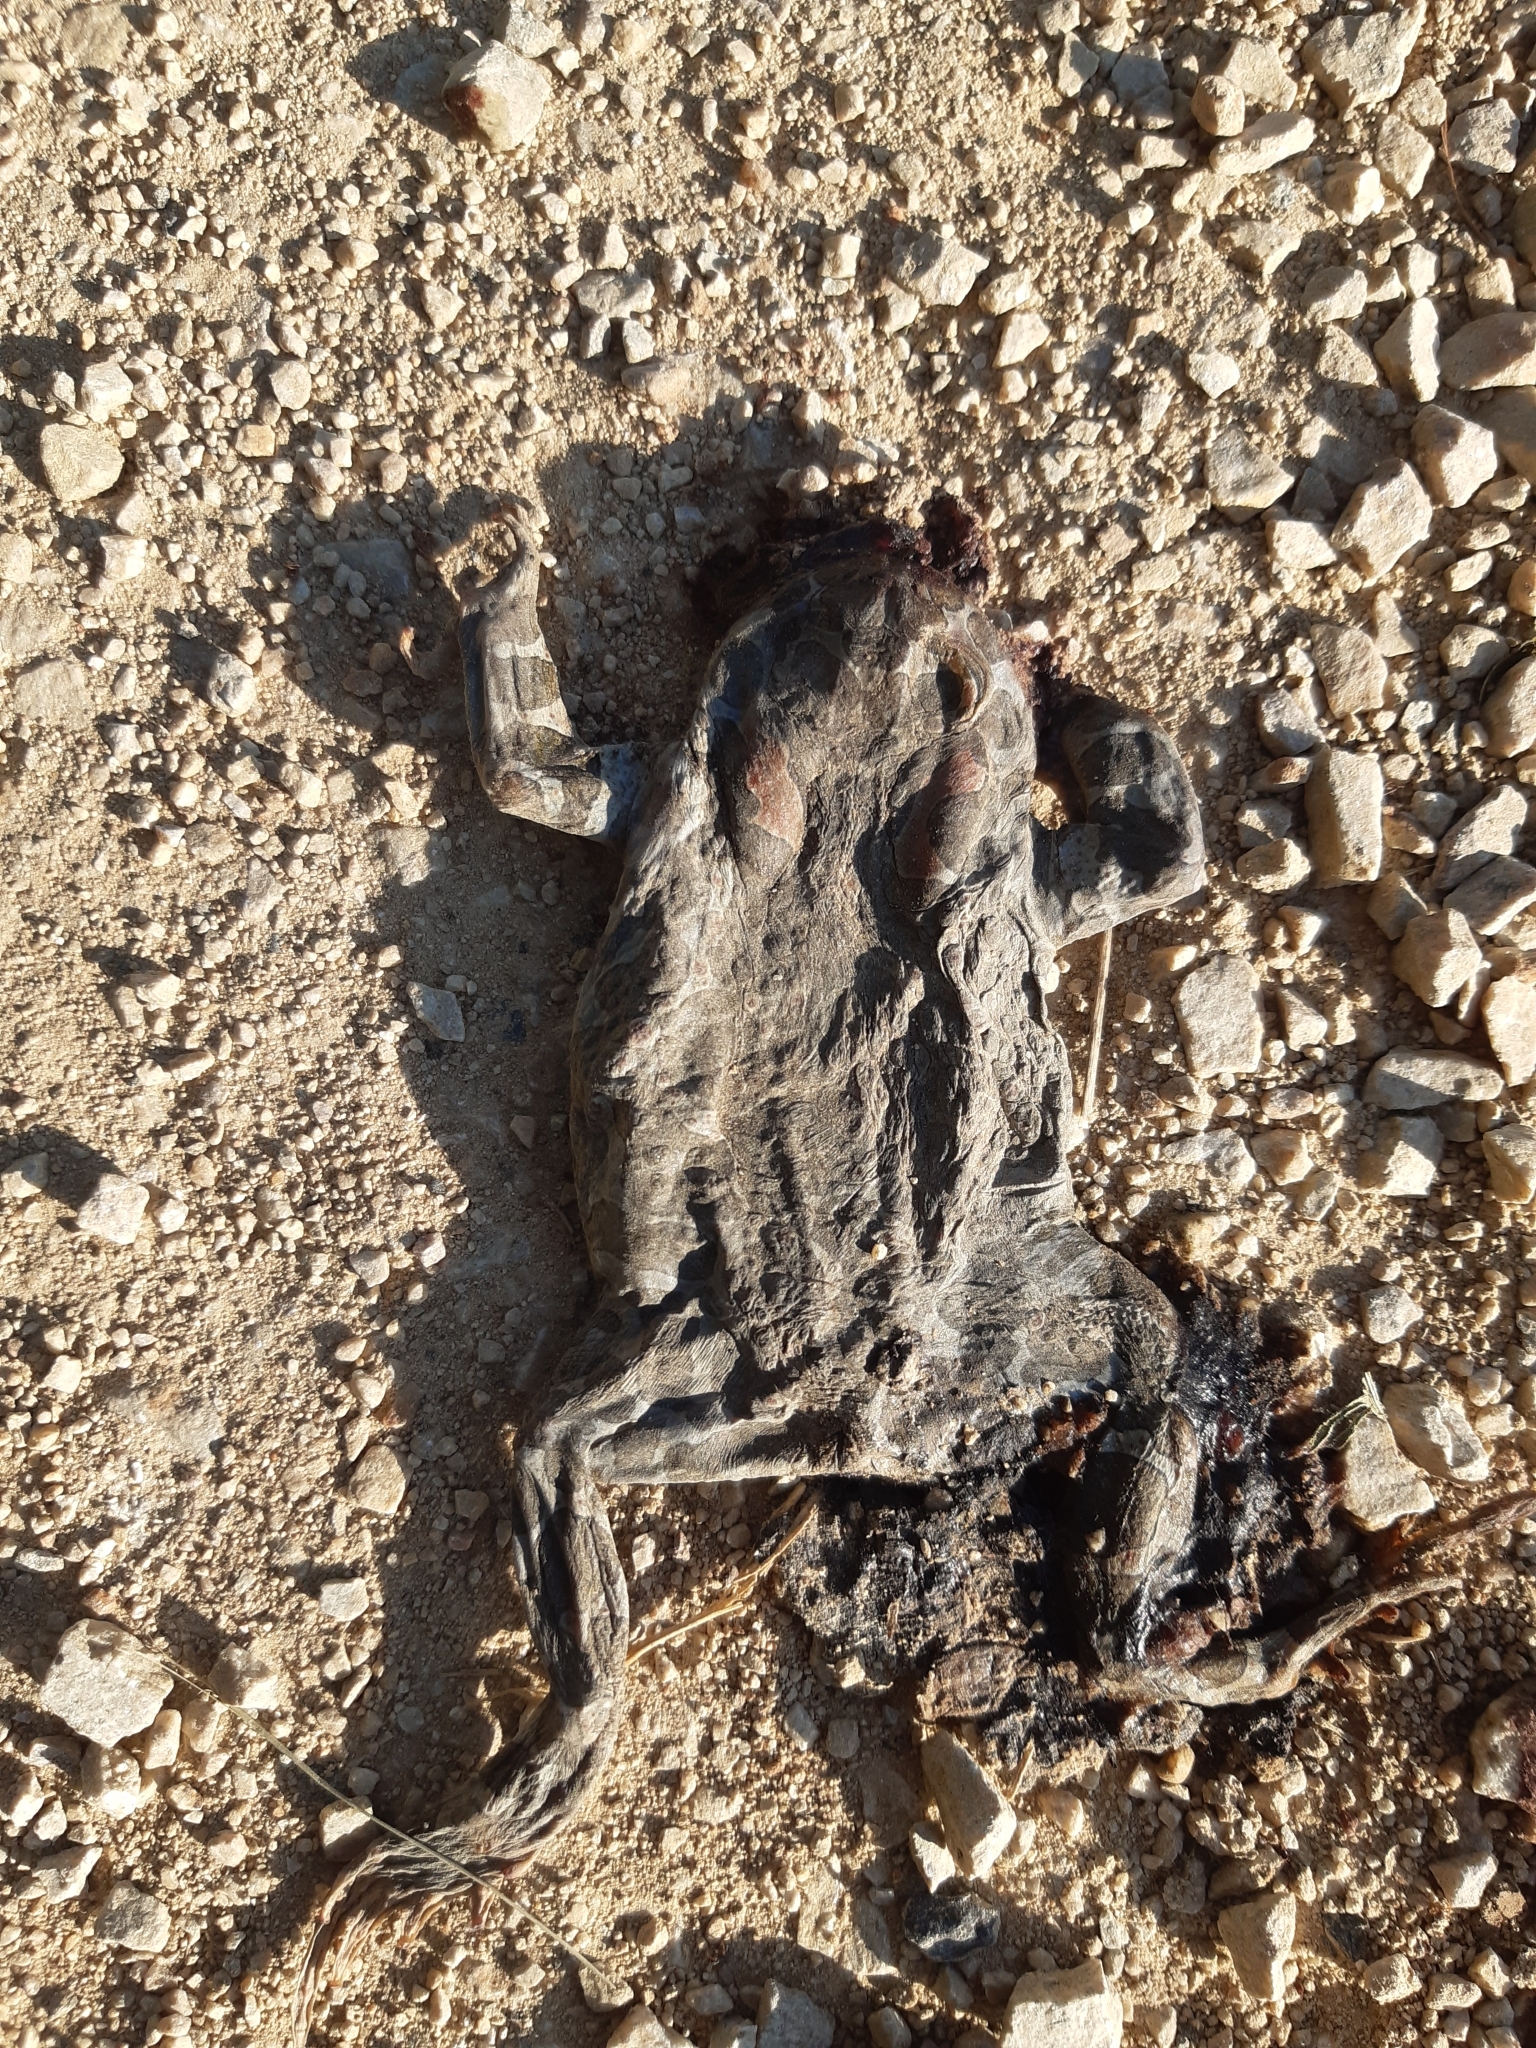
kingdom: Animalia
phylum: Chordata
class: Amphibia
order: Anura
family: Bufonidae
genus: Bufotes
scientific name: Bufotes viridis
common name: European green toad
